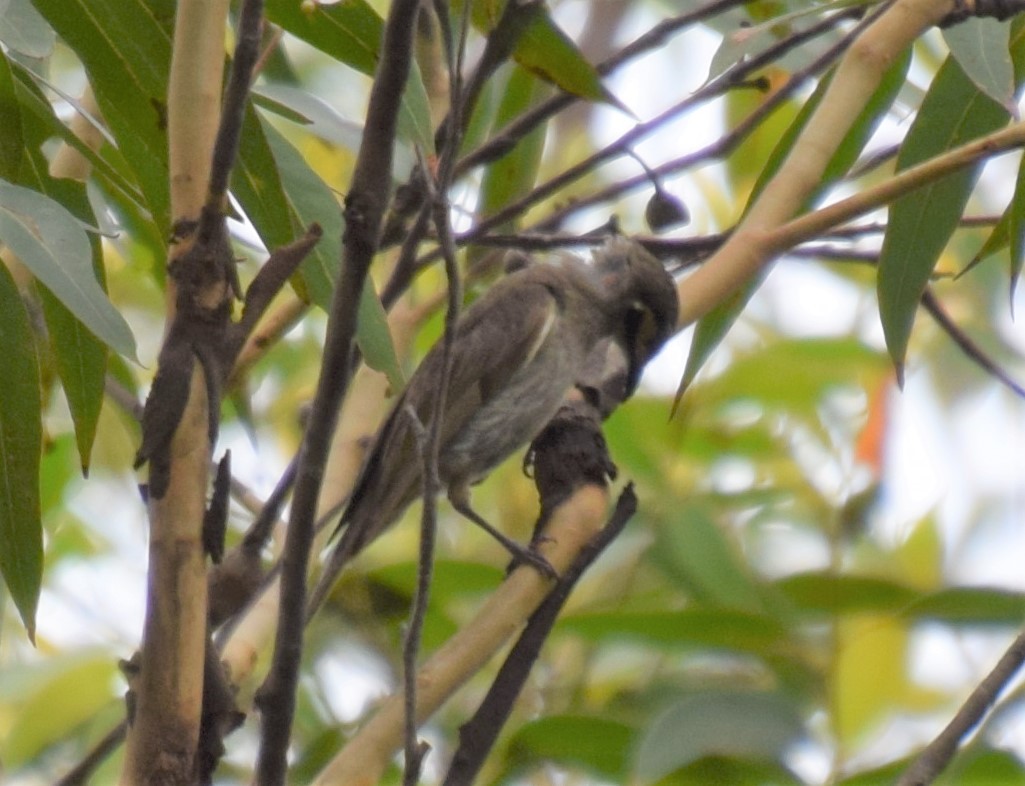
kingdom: Animalia
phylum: Chordata
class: Aves
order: Passeriformes
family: Meliphagidae
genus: Caligavis
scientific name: Caligavis chrysops
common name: Yellow-faced honeyeater
